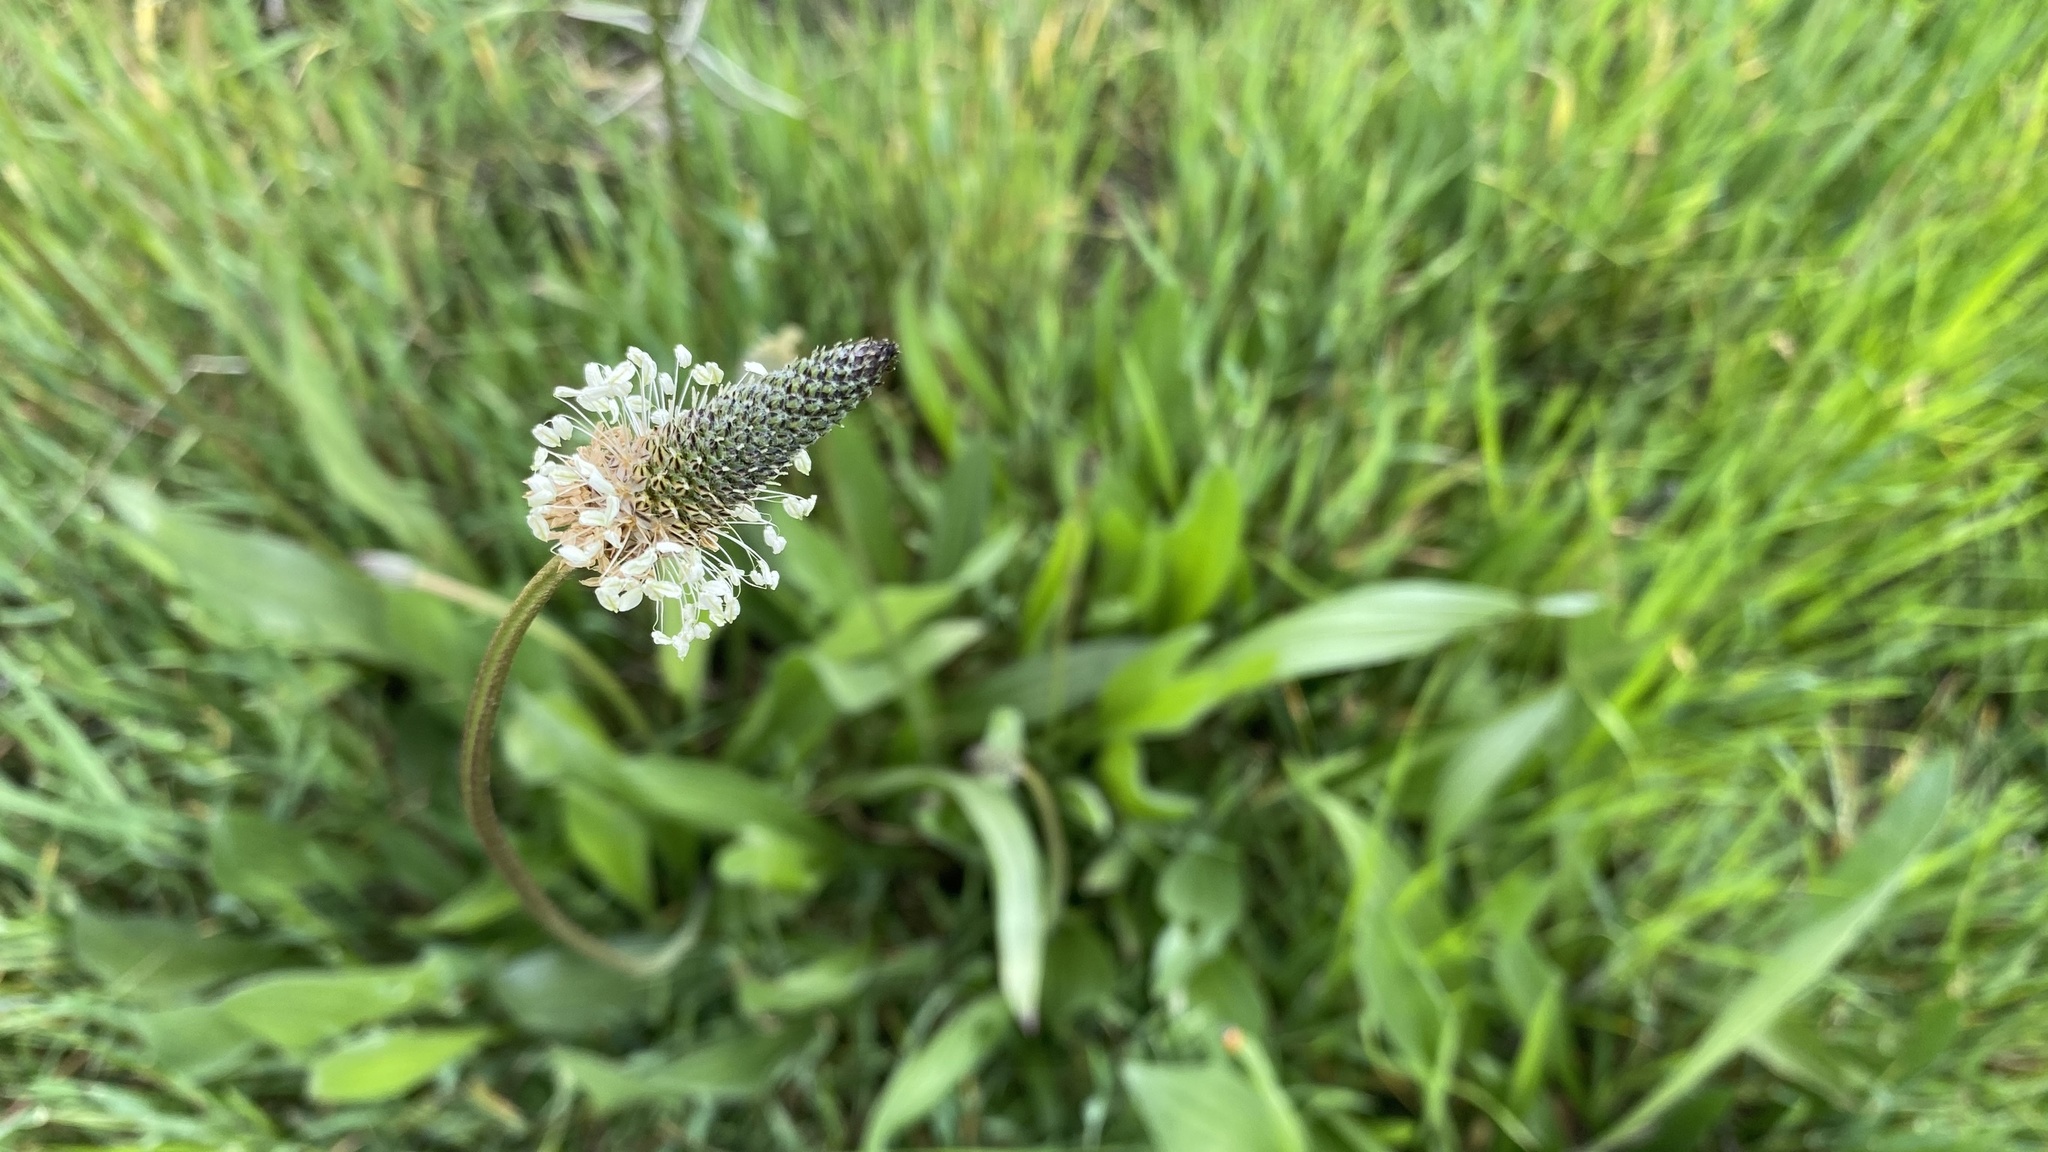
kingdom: Plantae
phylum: Tracheophyta
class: Magnoliopsida
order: Lamiales
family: Plantaginaceae
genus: Plantago
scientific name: Plantago lanceolata
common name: Ribwort plantain
